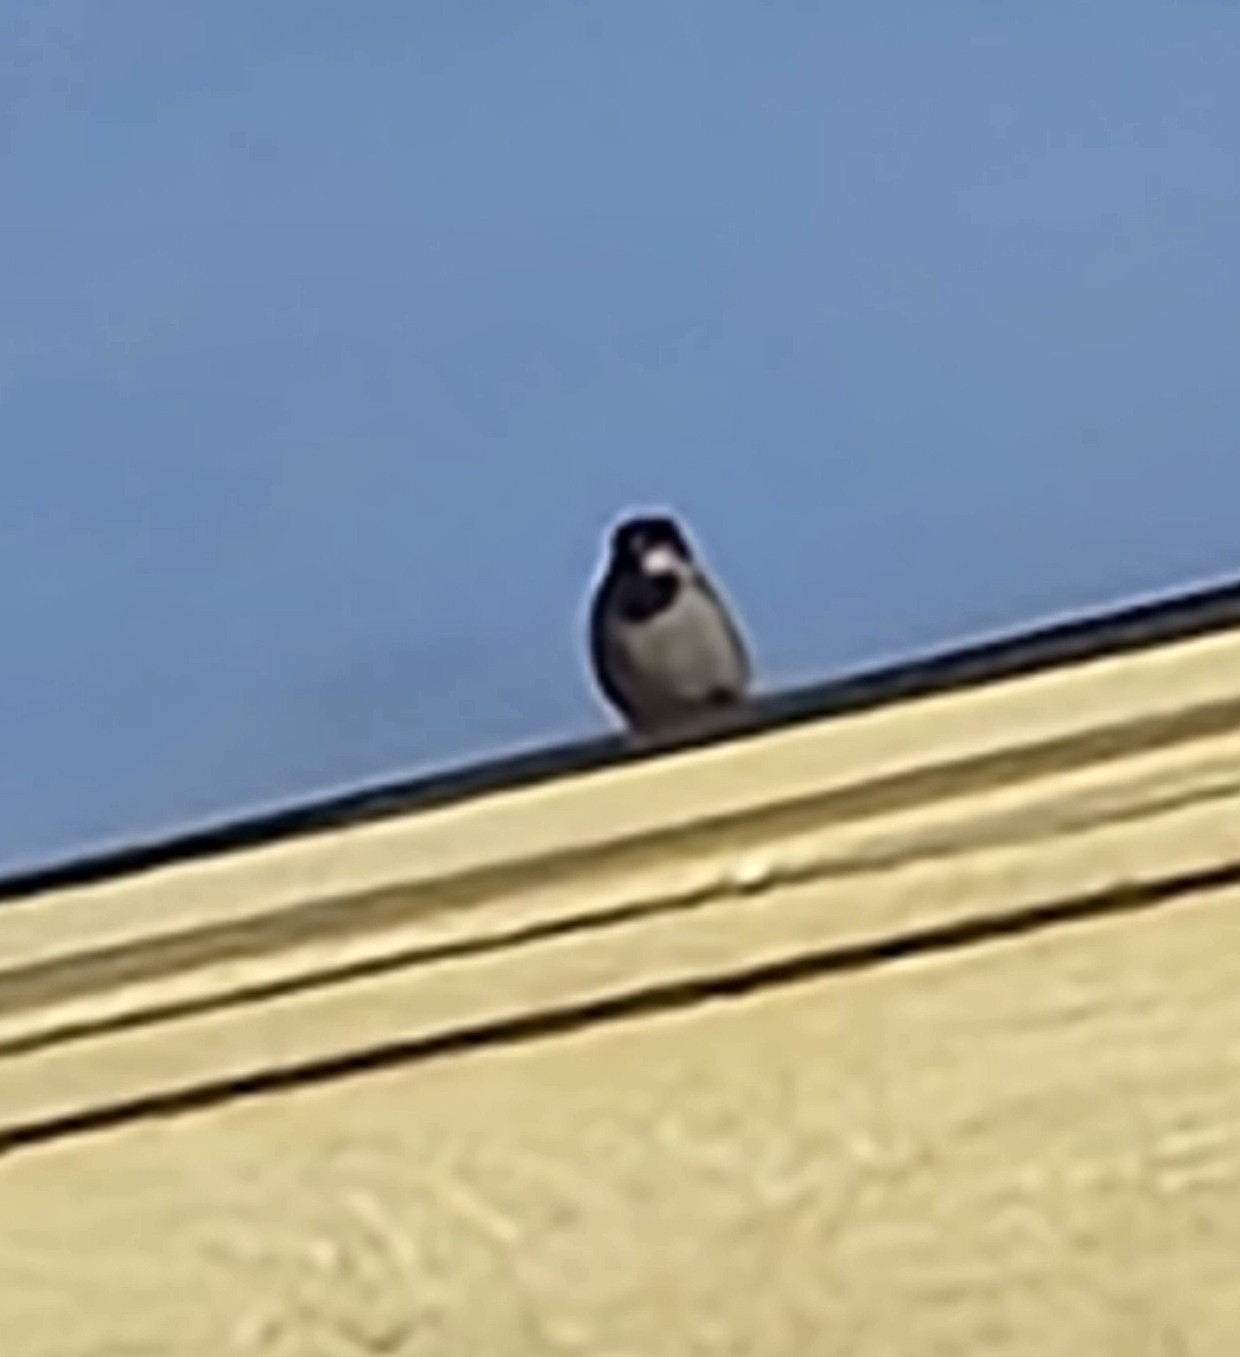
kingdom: Animalia
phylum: Chordata
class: Aves
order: Passeriformes
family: Passeridae
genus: Passer
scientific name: Passer domesticus
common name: House sparrow
